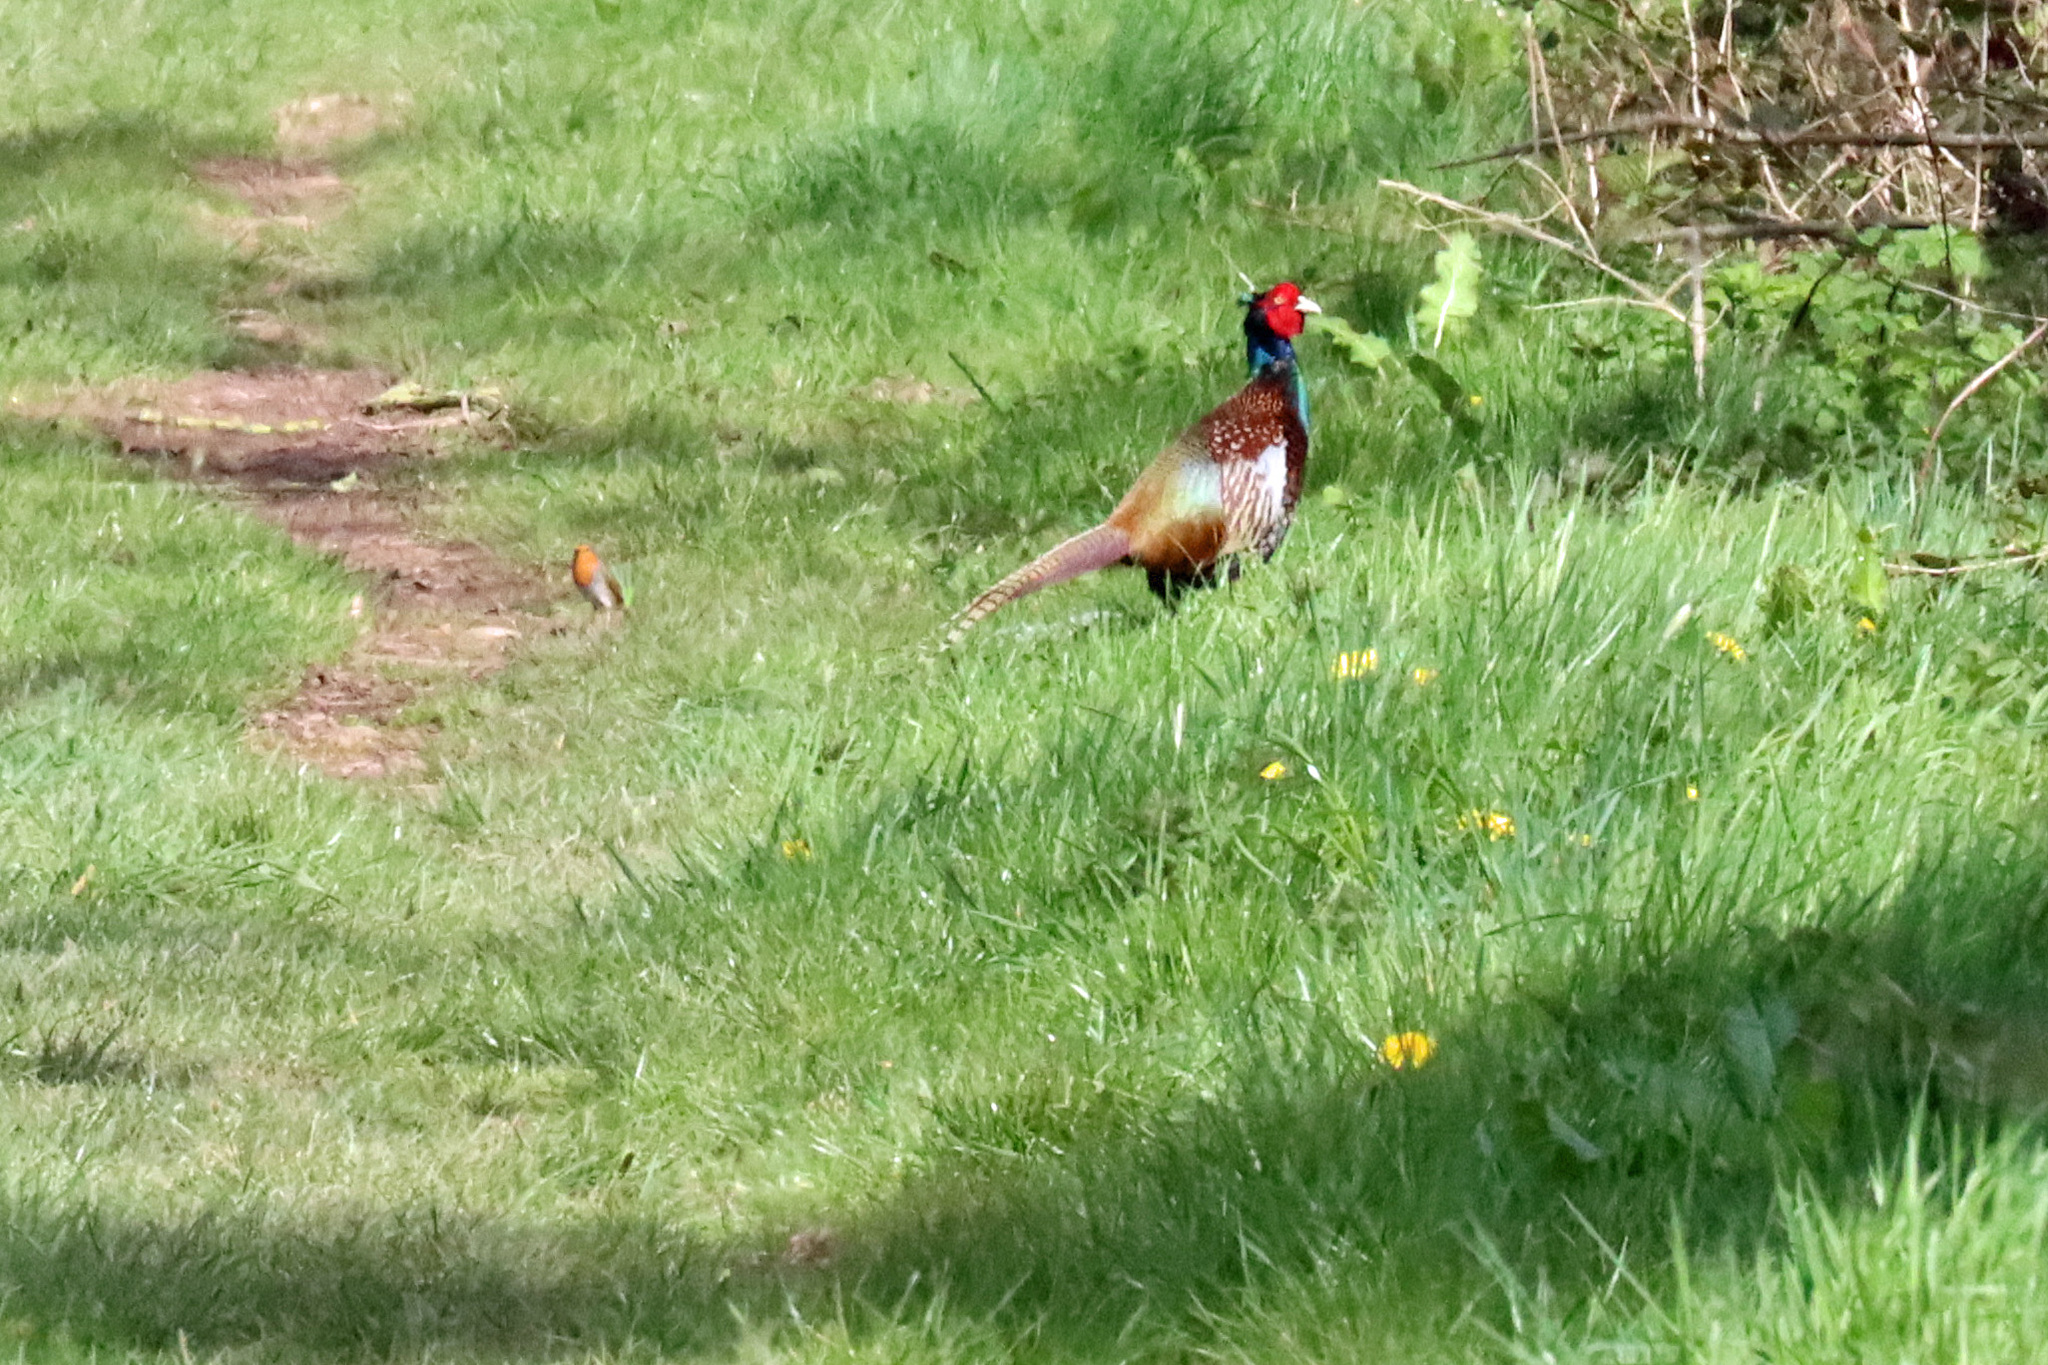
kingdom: Animalia
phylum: Chordata
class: Aves
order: Galliformes
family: Phasianidae
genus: Phasianus
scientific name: Phasianus colchicus
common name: Common pheasant
